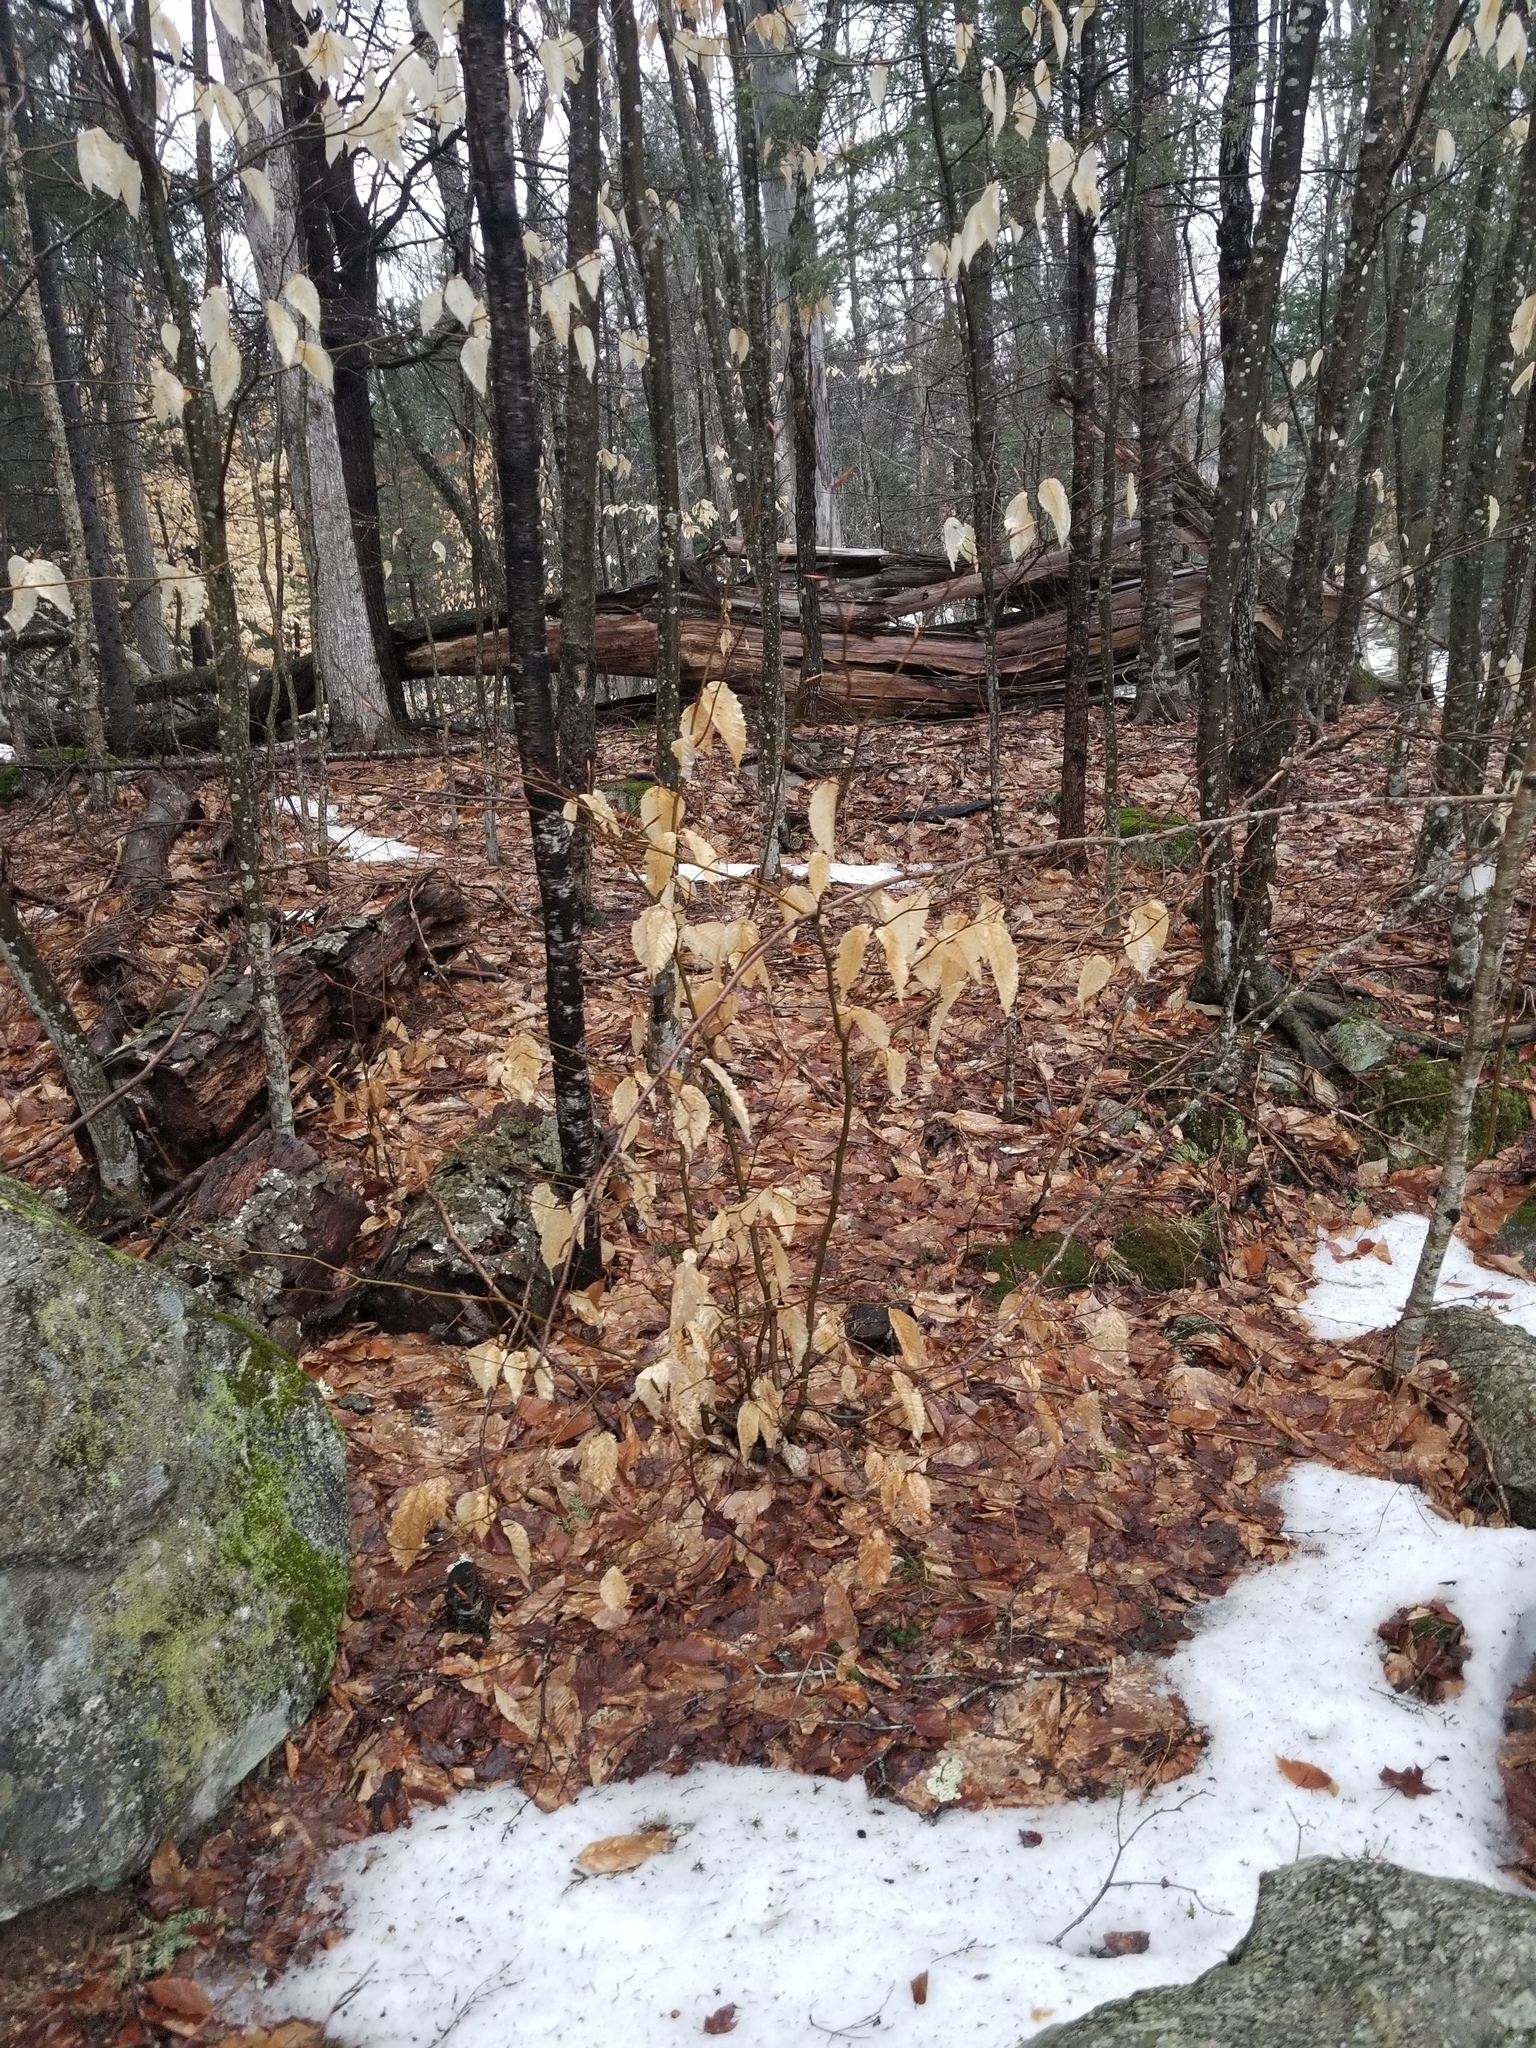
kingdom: Plantae
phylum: Tracheophyta
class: Magnoliopsida
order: Fagales
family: Fagaceae
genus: Fagus
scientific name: Fagus grandifolia
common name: American beech
